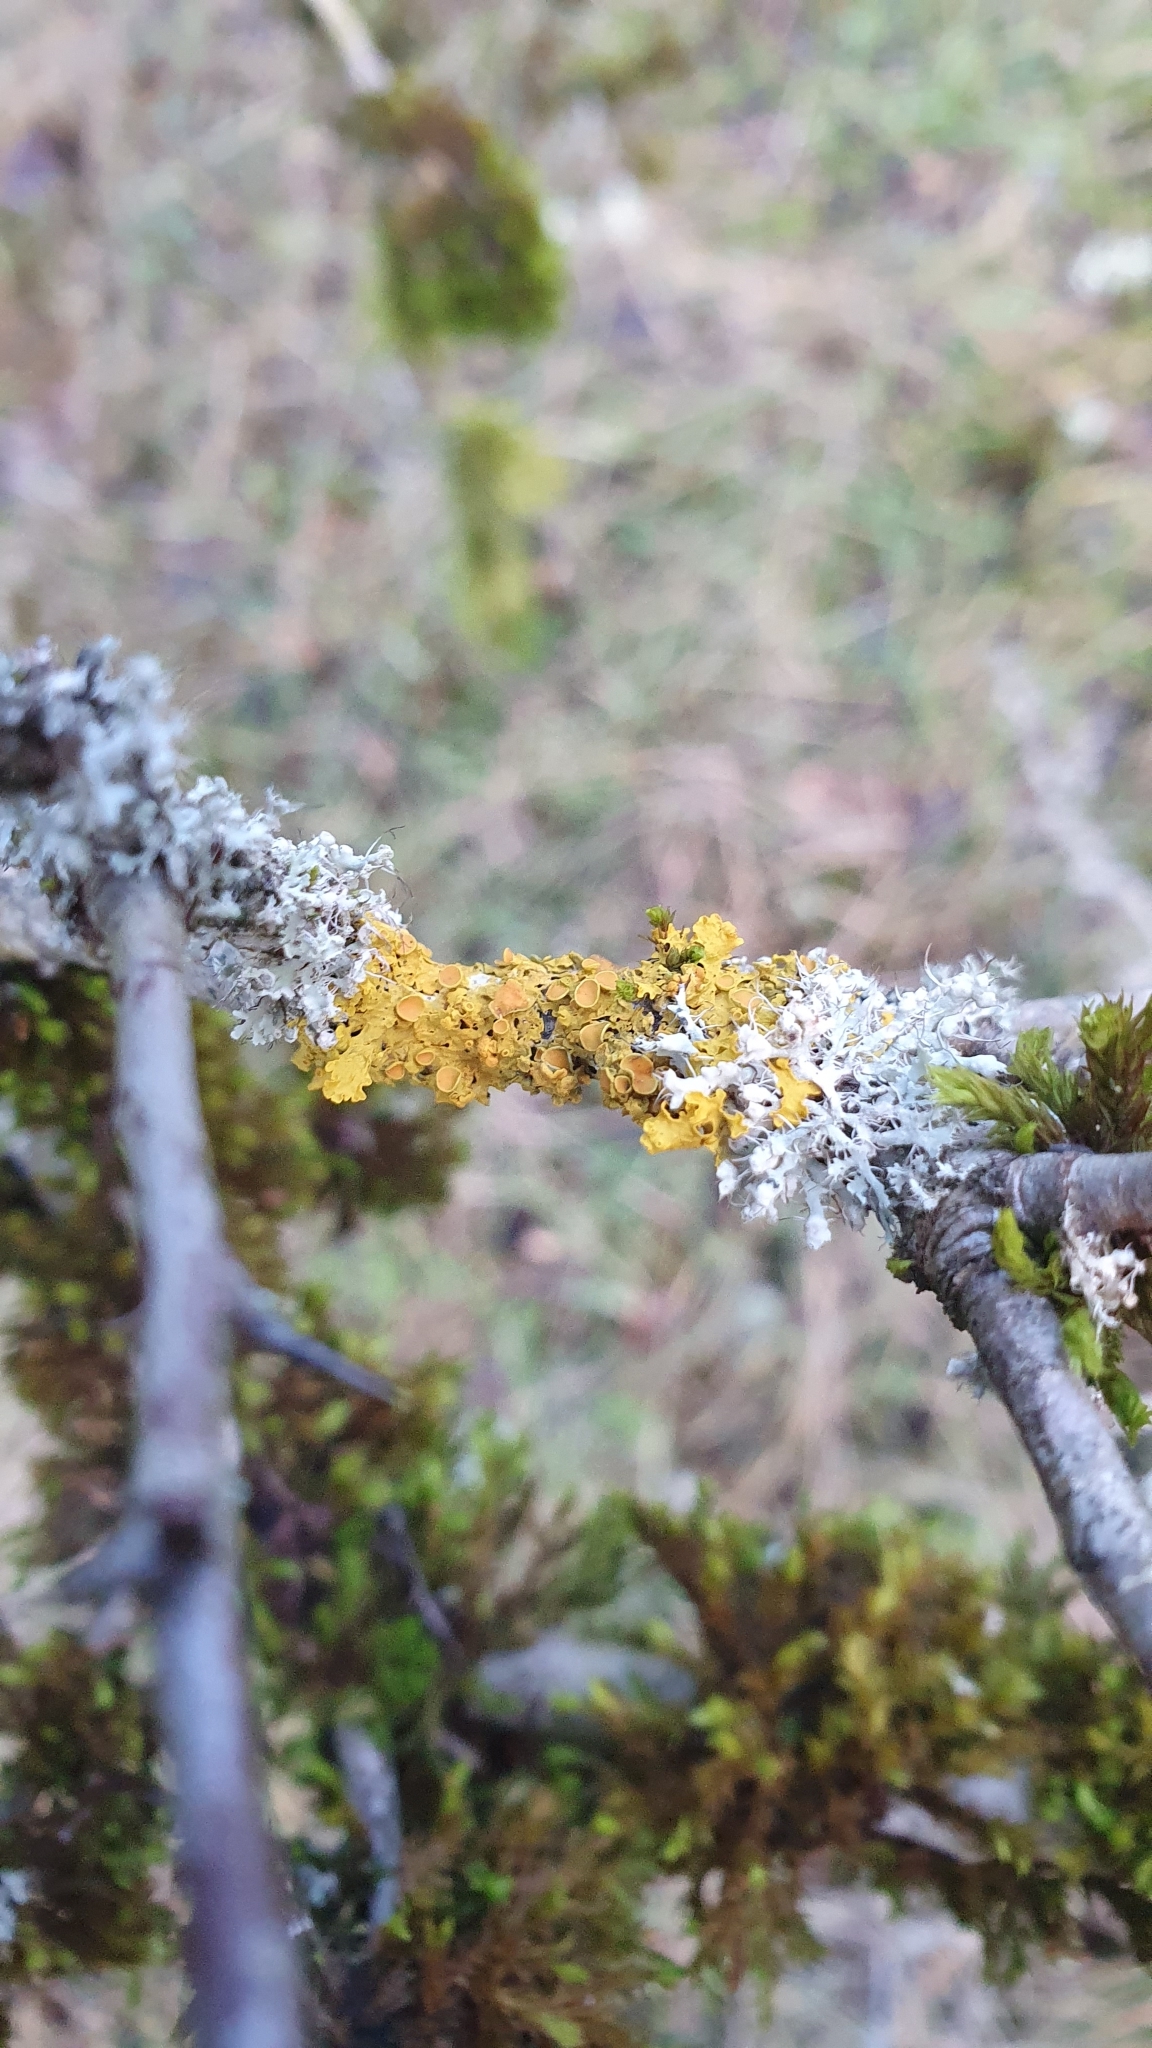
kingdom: Fungi
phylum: Ascomycota
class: Lecanoromycetes
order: Teloschistales
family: Teloschistaceae
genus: Xanthoria
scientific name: Xanthoria parietina
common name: Common orange lichen
